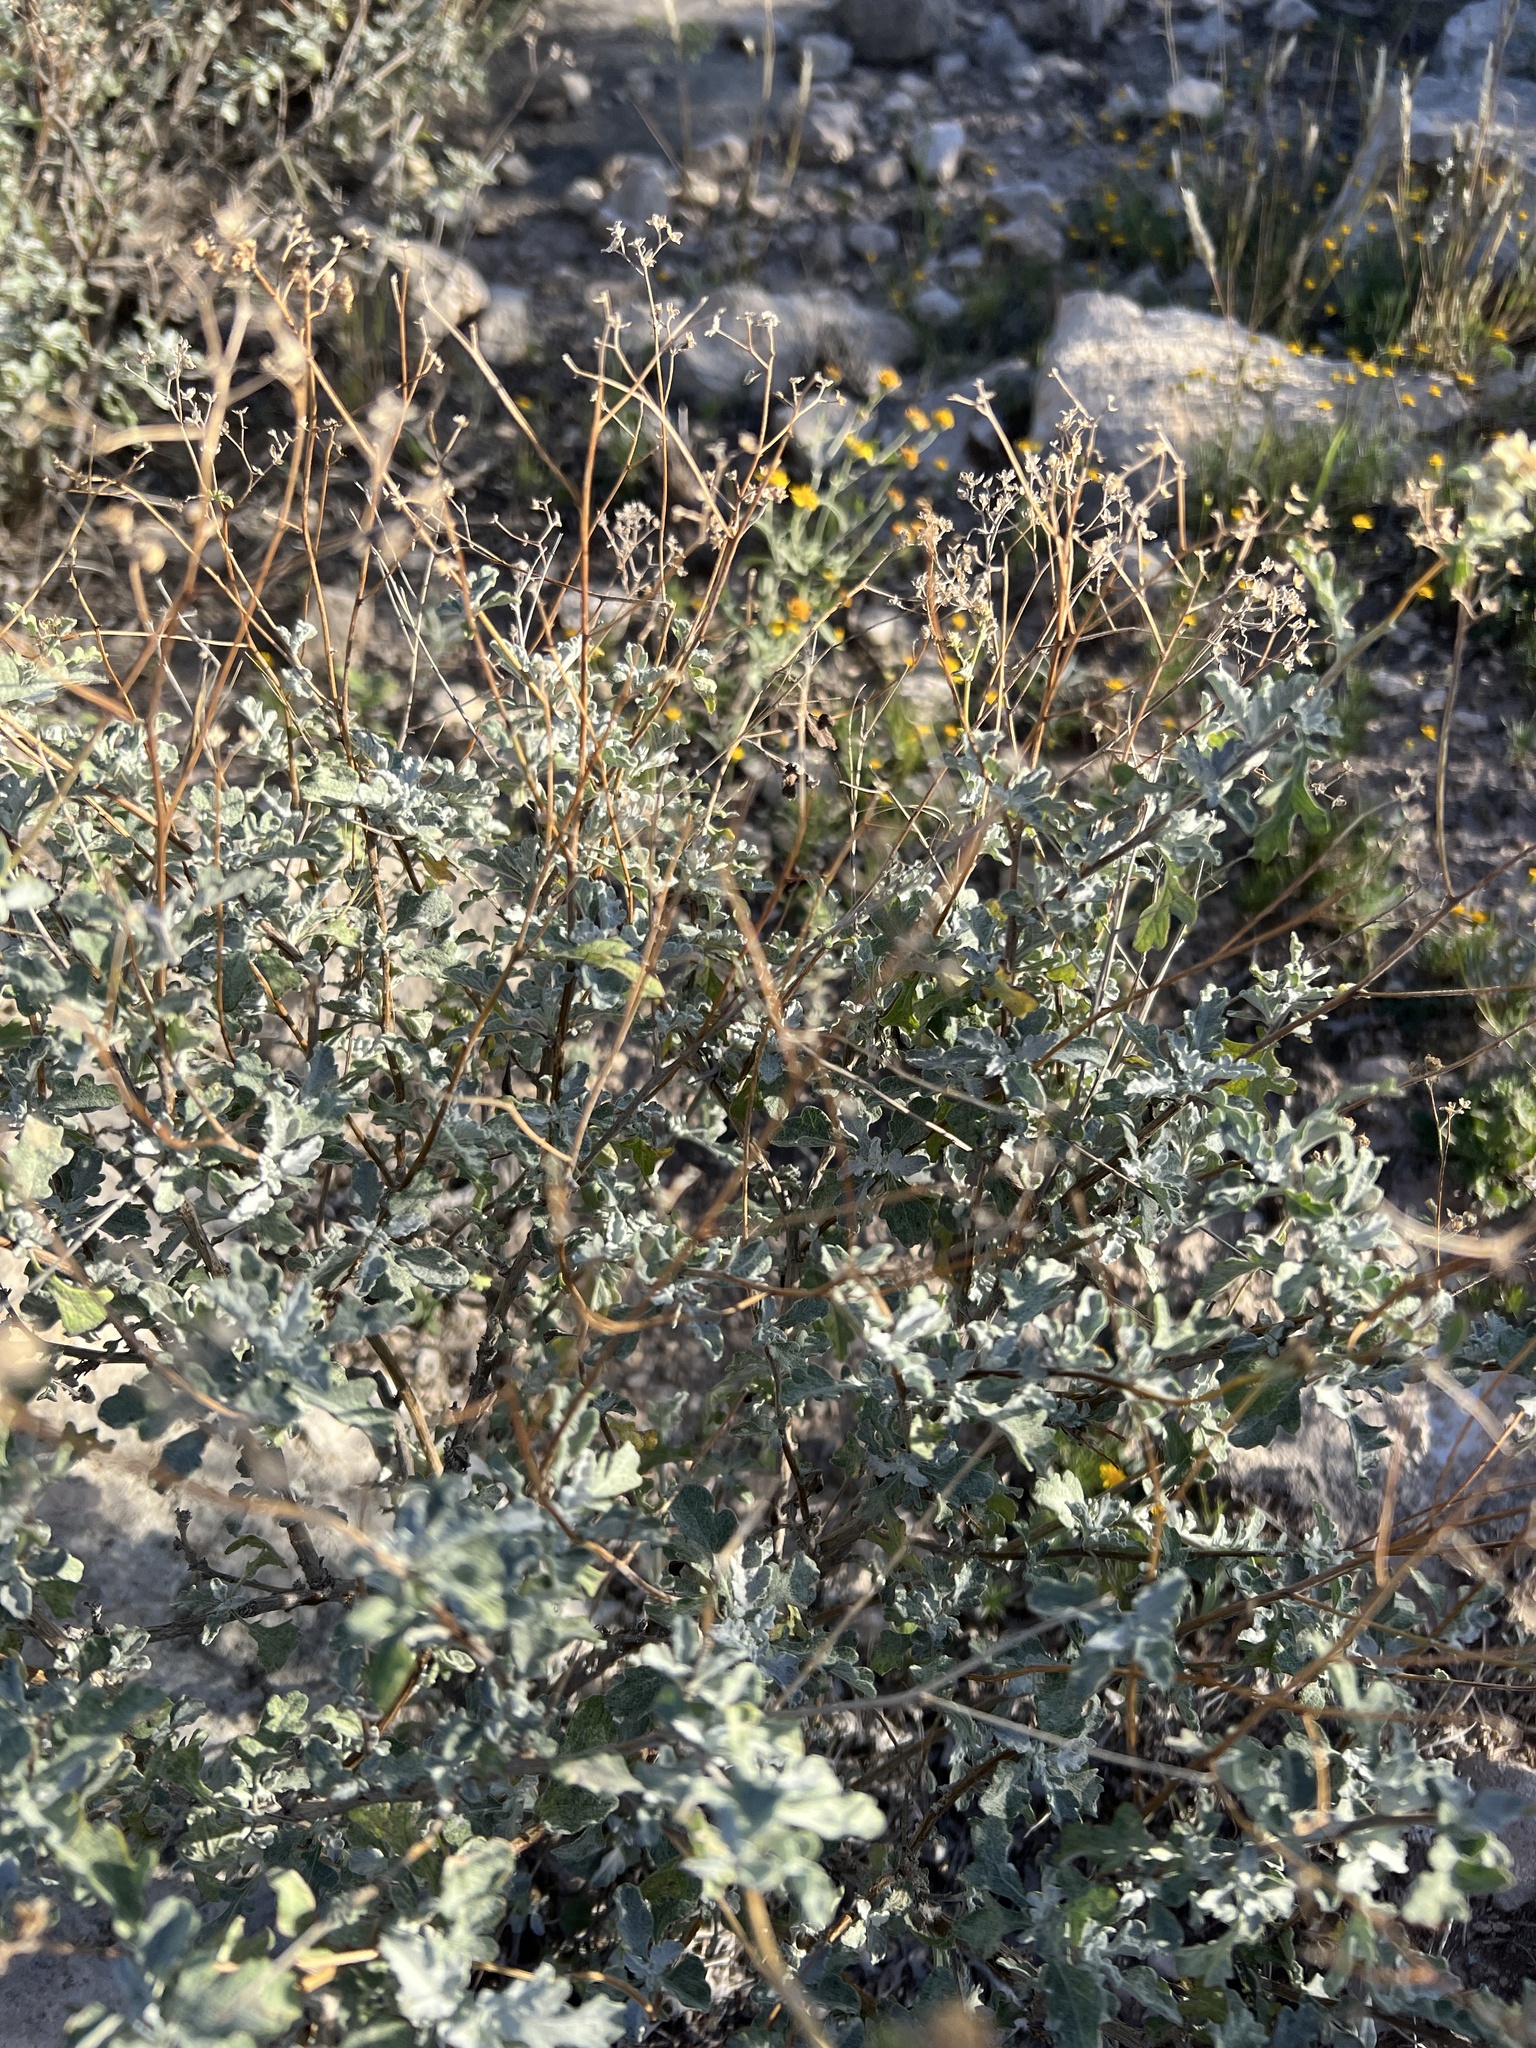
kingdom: Plantae
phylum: Tracheophyta
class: Magnoliopsida
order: Asterales
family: Asteraceae
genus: Parthenium
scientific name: Parthenium incanum
